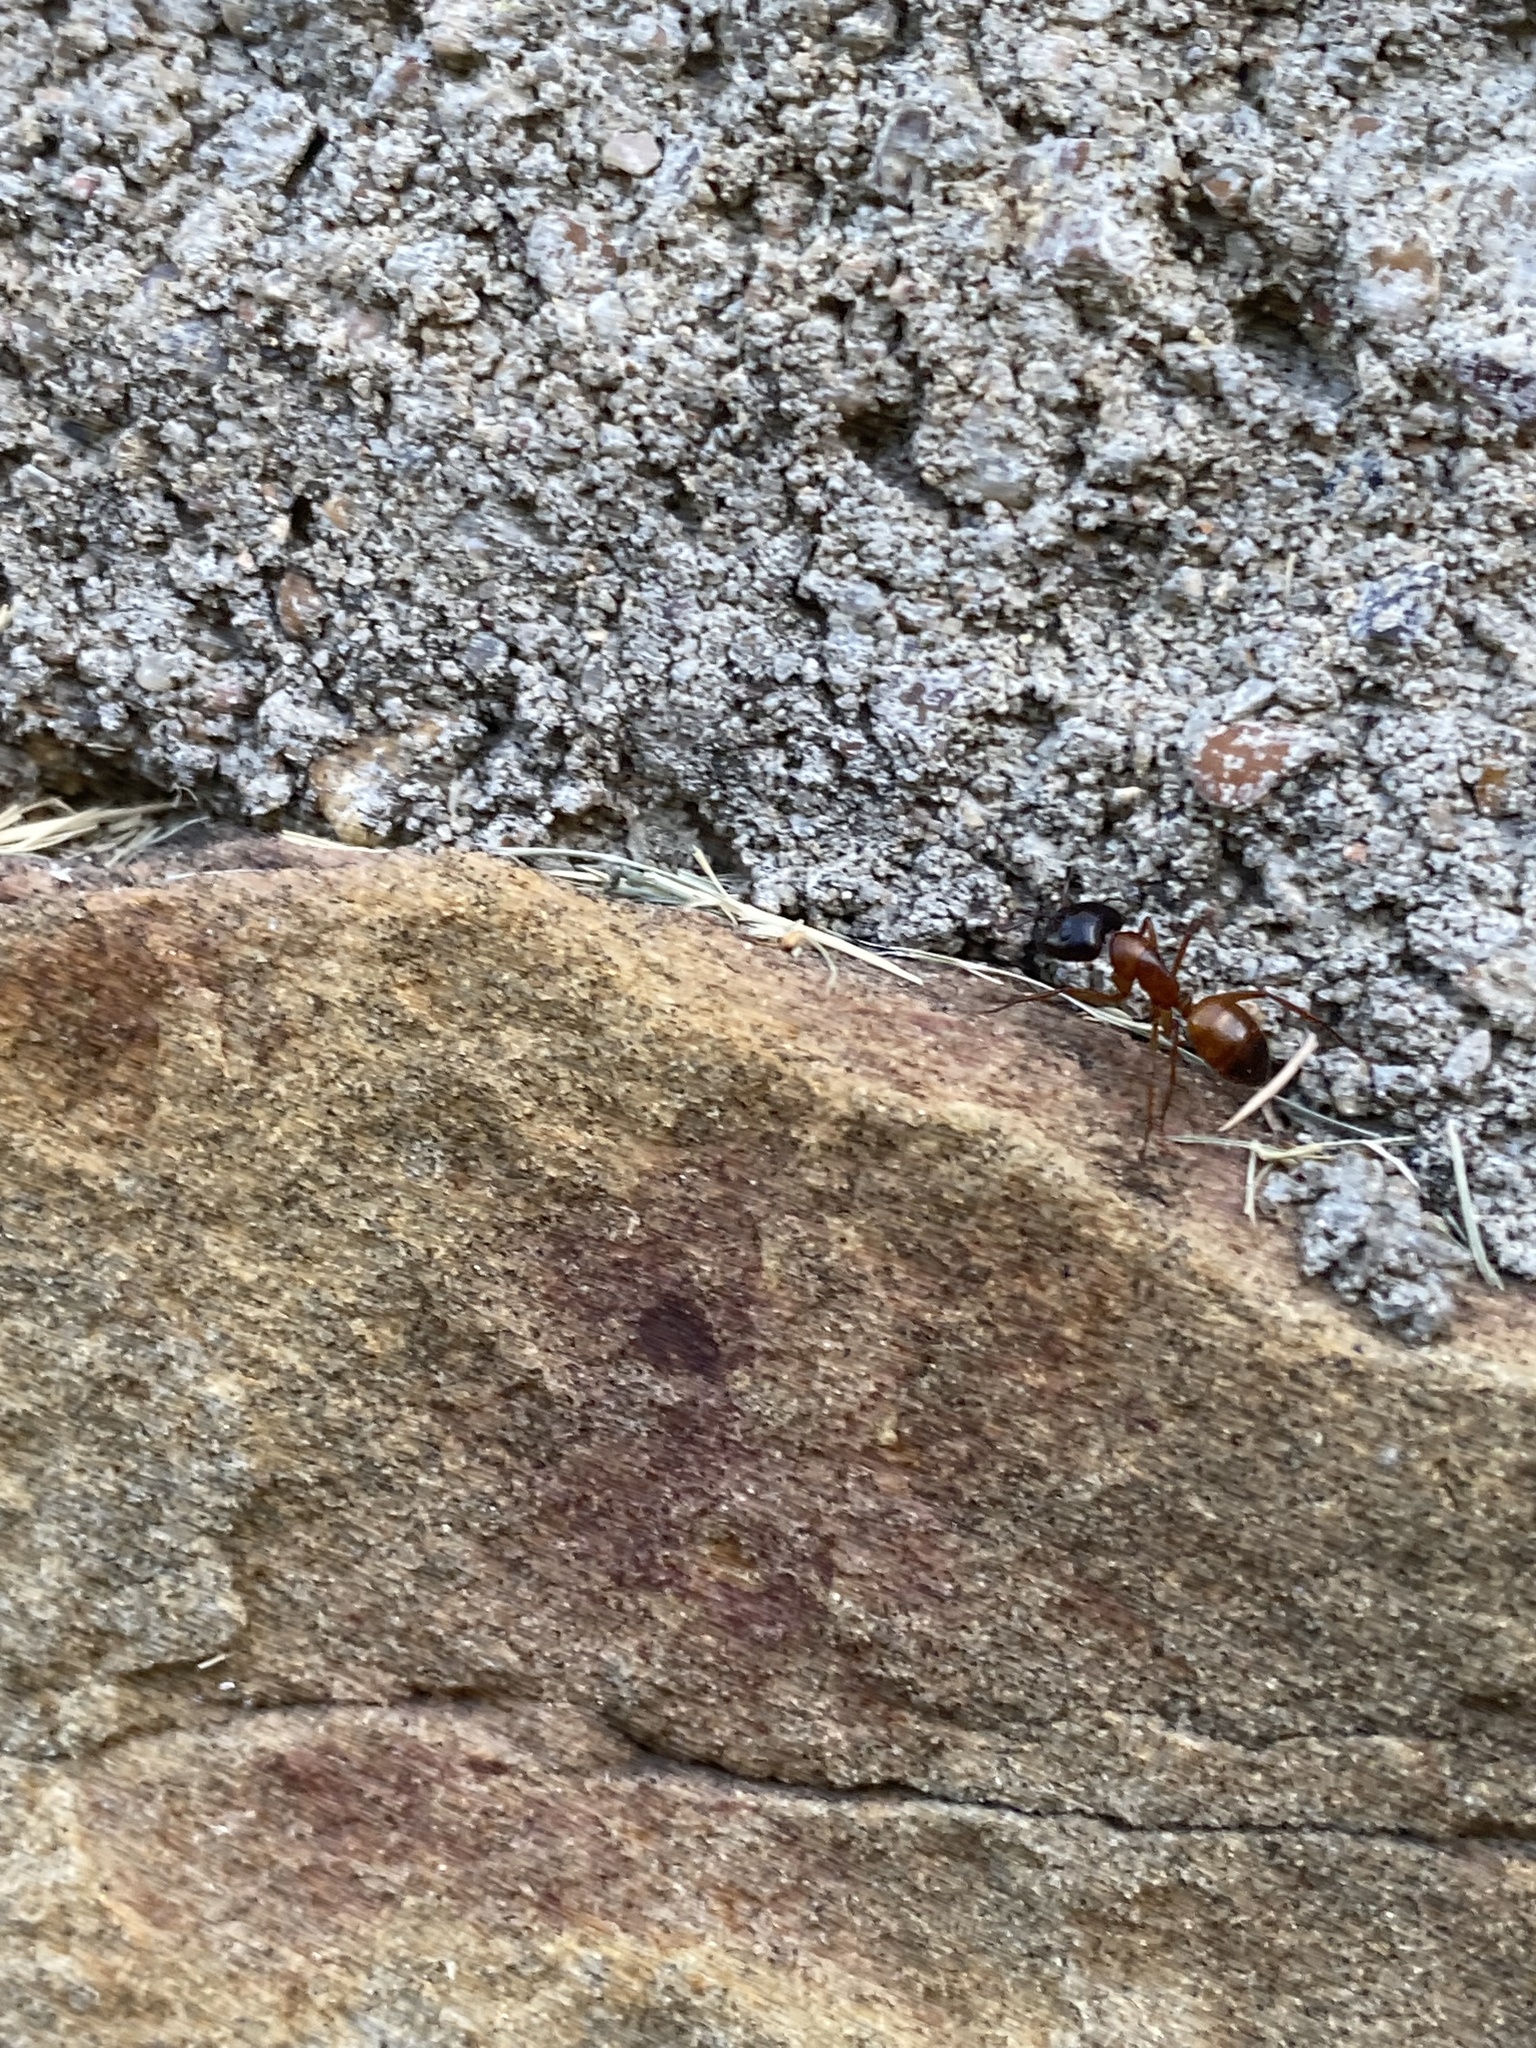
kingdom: Animalia
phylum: Arthropoda
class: Insecta
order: Hymenoptera
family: Formicidae
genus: Camponotus
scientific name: Camponotus sansabeanus
